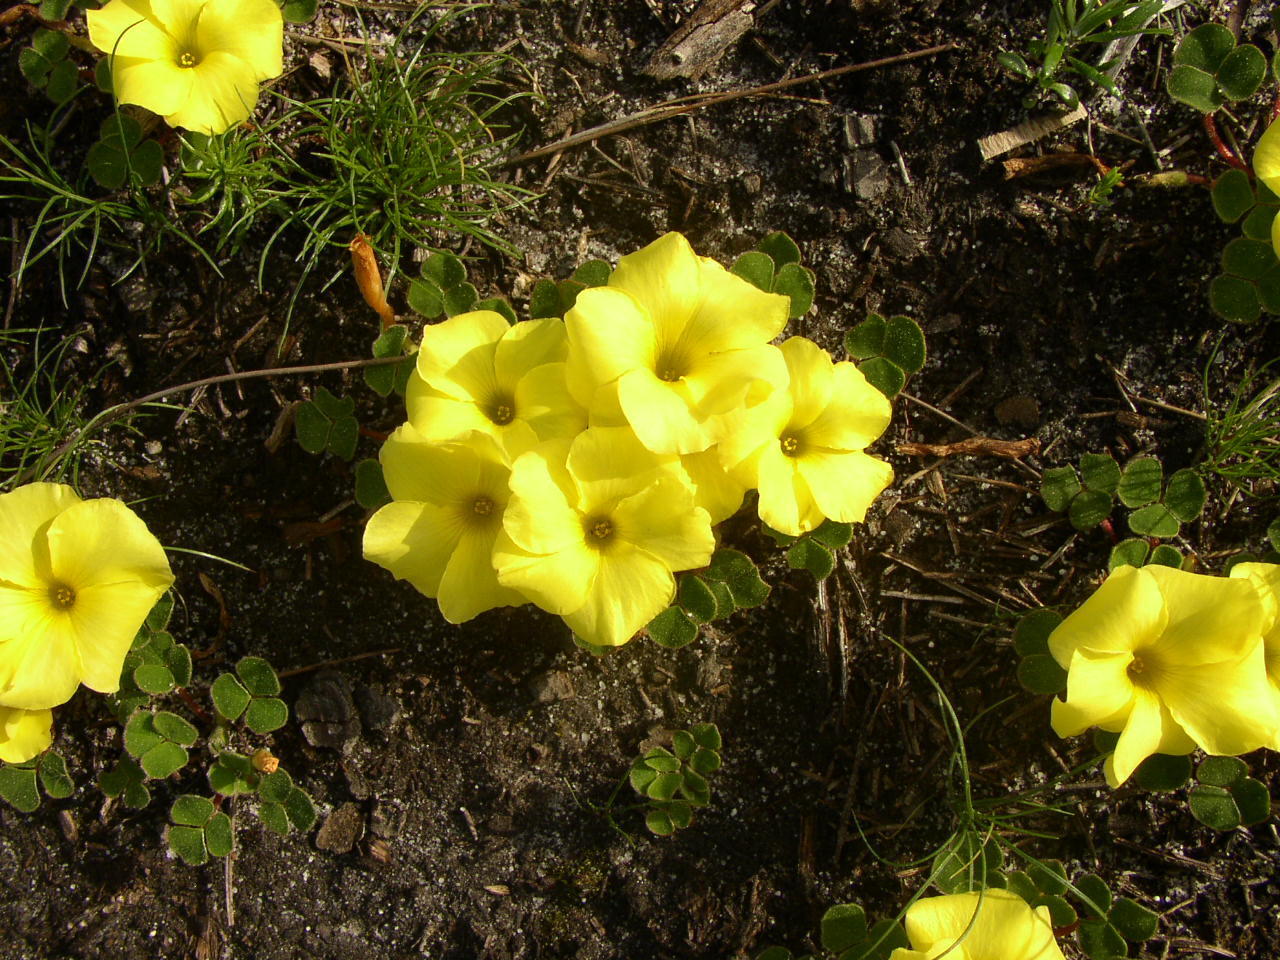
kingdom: Plantae
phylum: Tracheophyta
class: Magnoliopsida
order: Oxalidales
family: Oxalidaceae
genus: Oxalis
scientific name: Oxalis luteola
